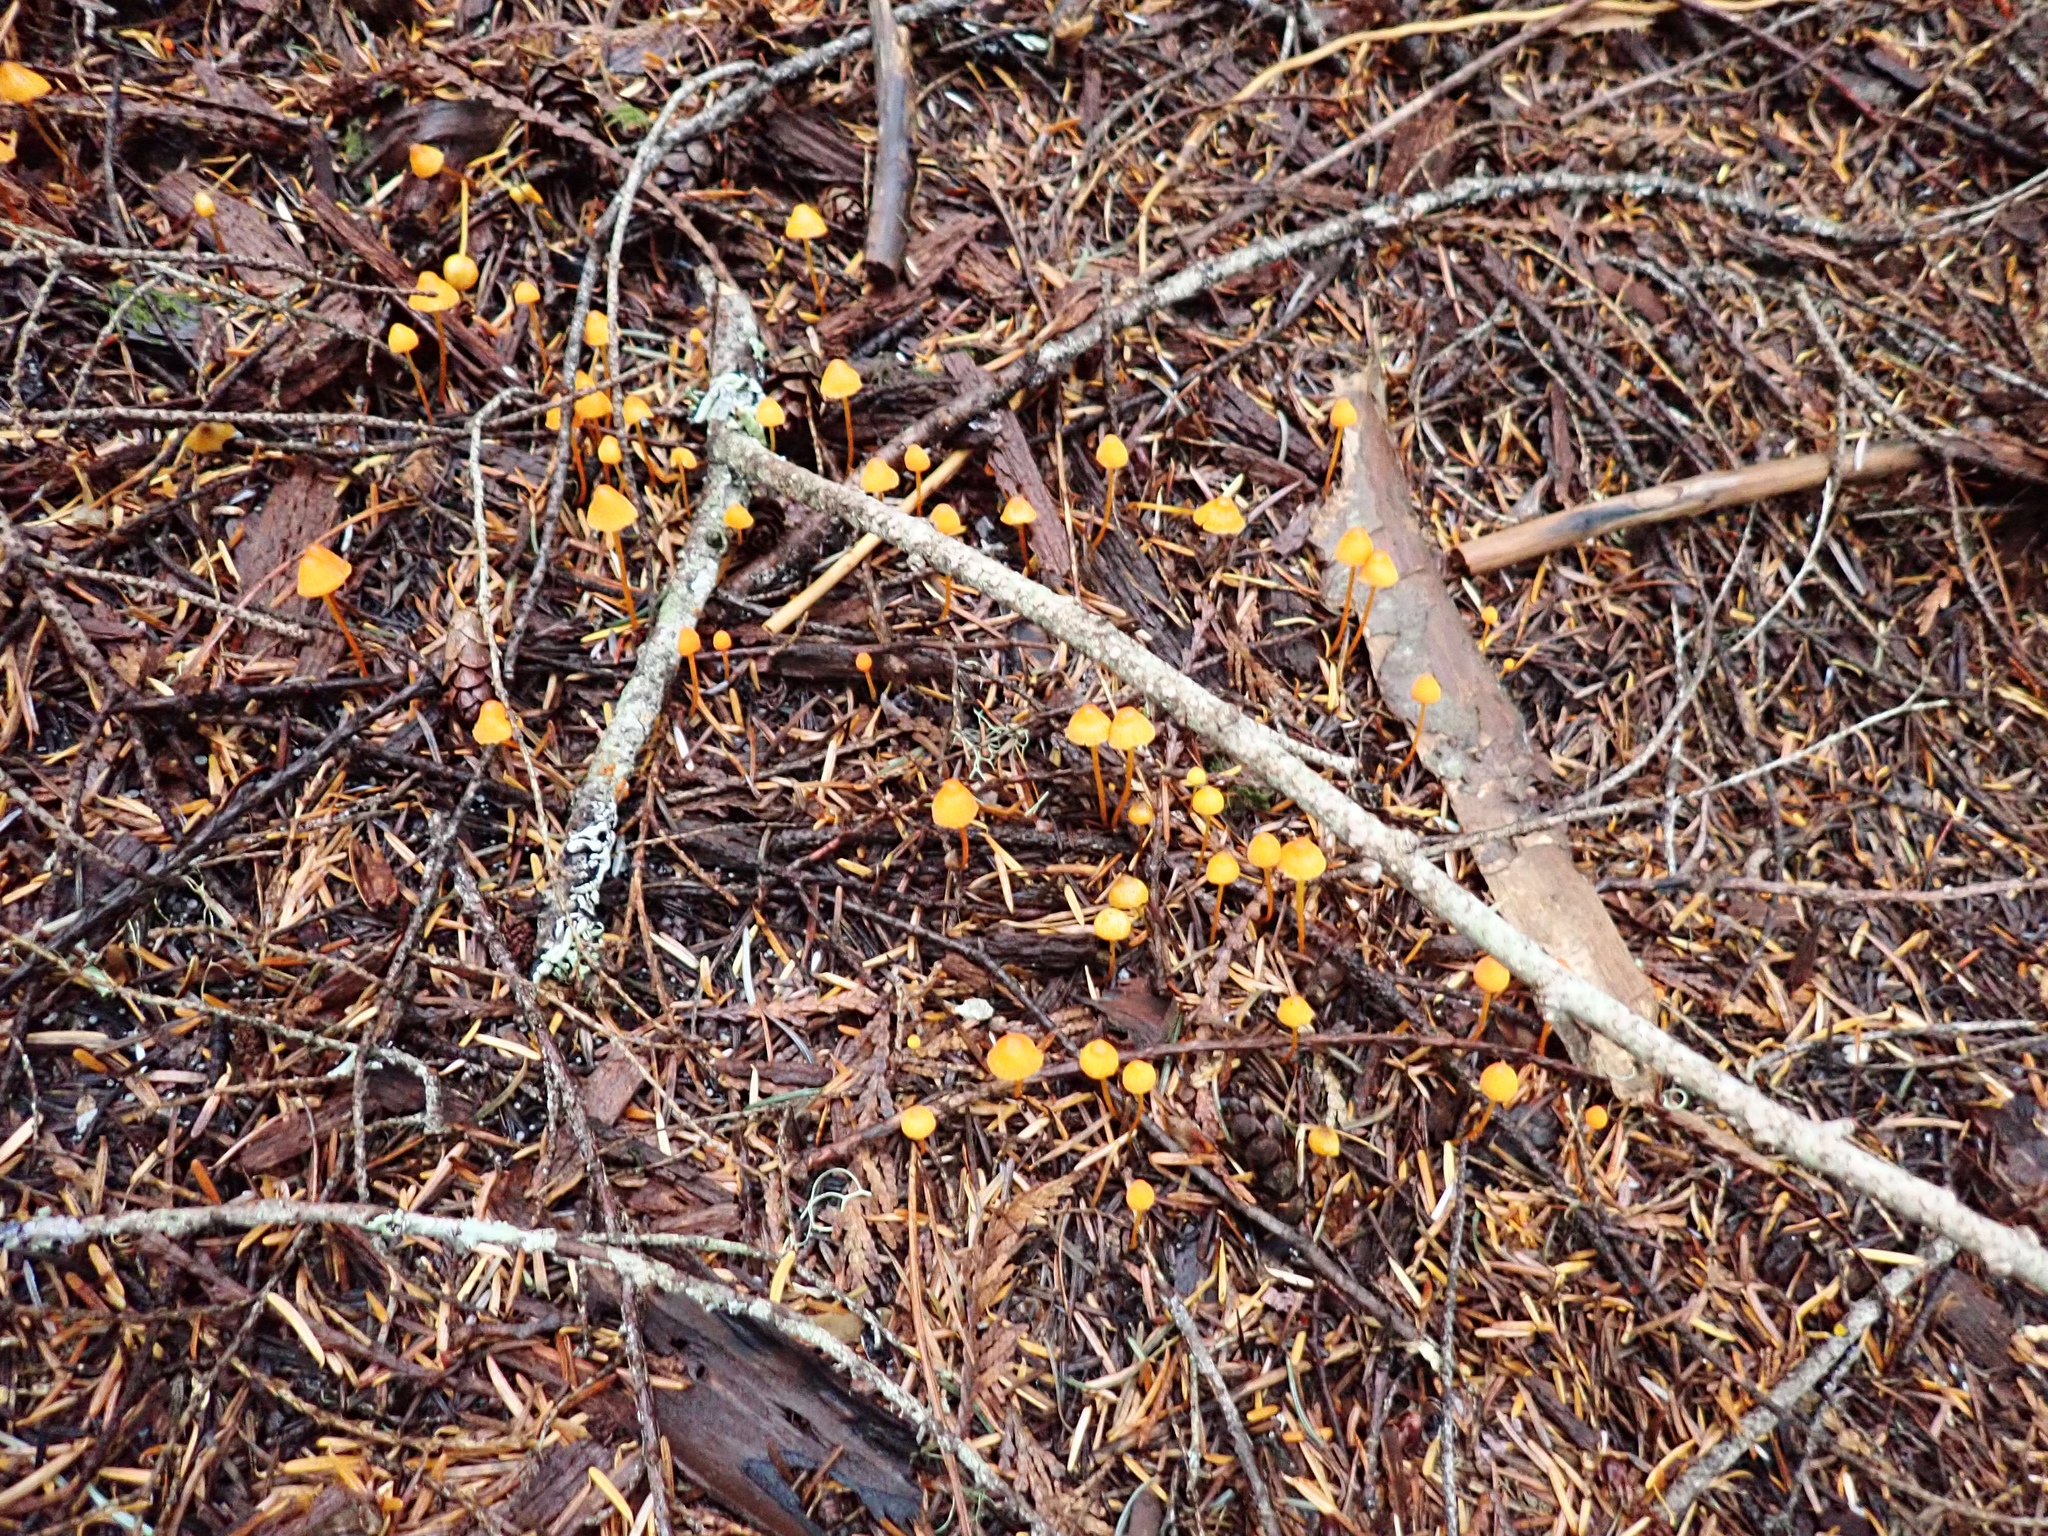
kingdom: Fungi
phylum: Basidiomycota
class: Agaricomycetes
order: Agaricales
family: Mycenaceae
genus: Mycena
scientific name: Mycena strobilinoidea
